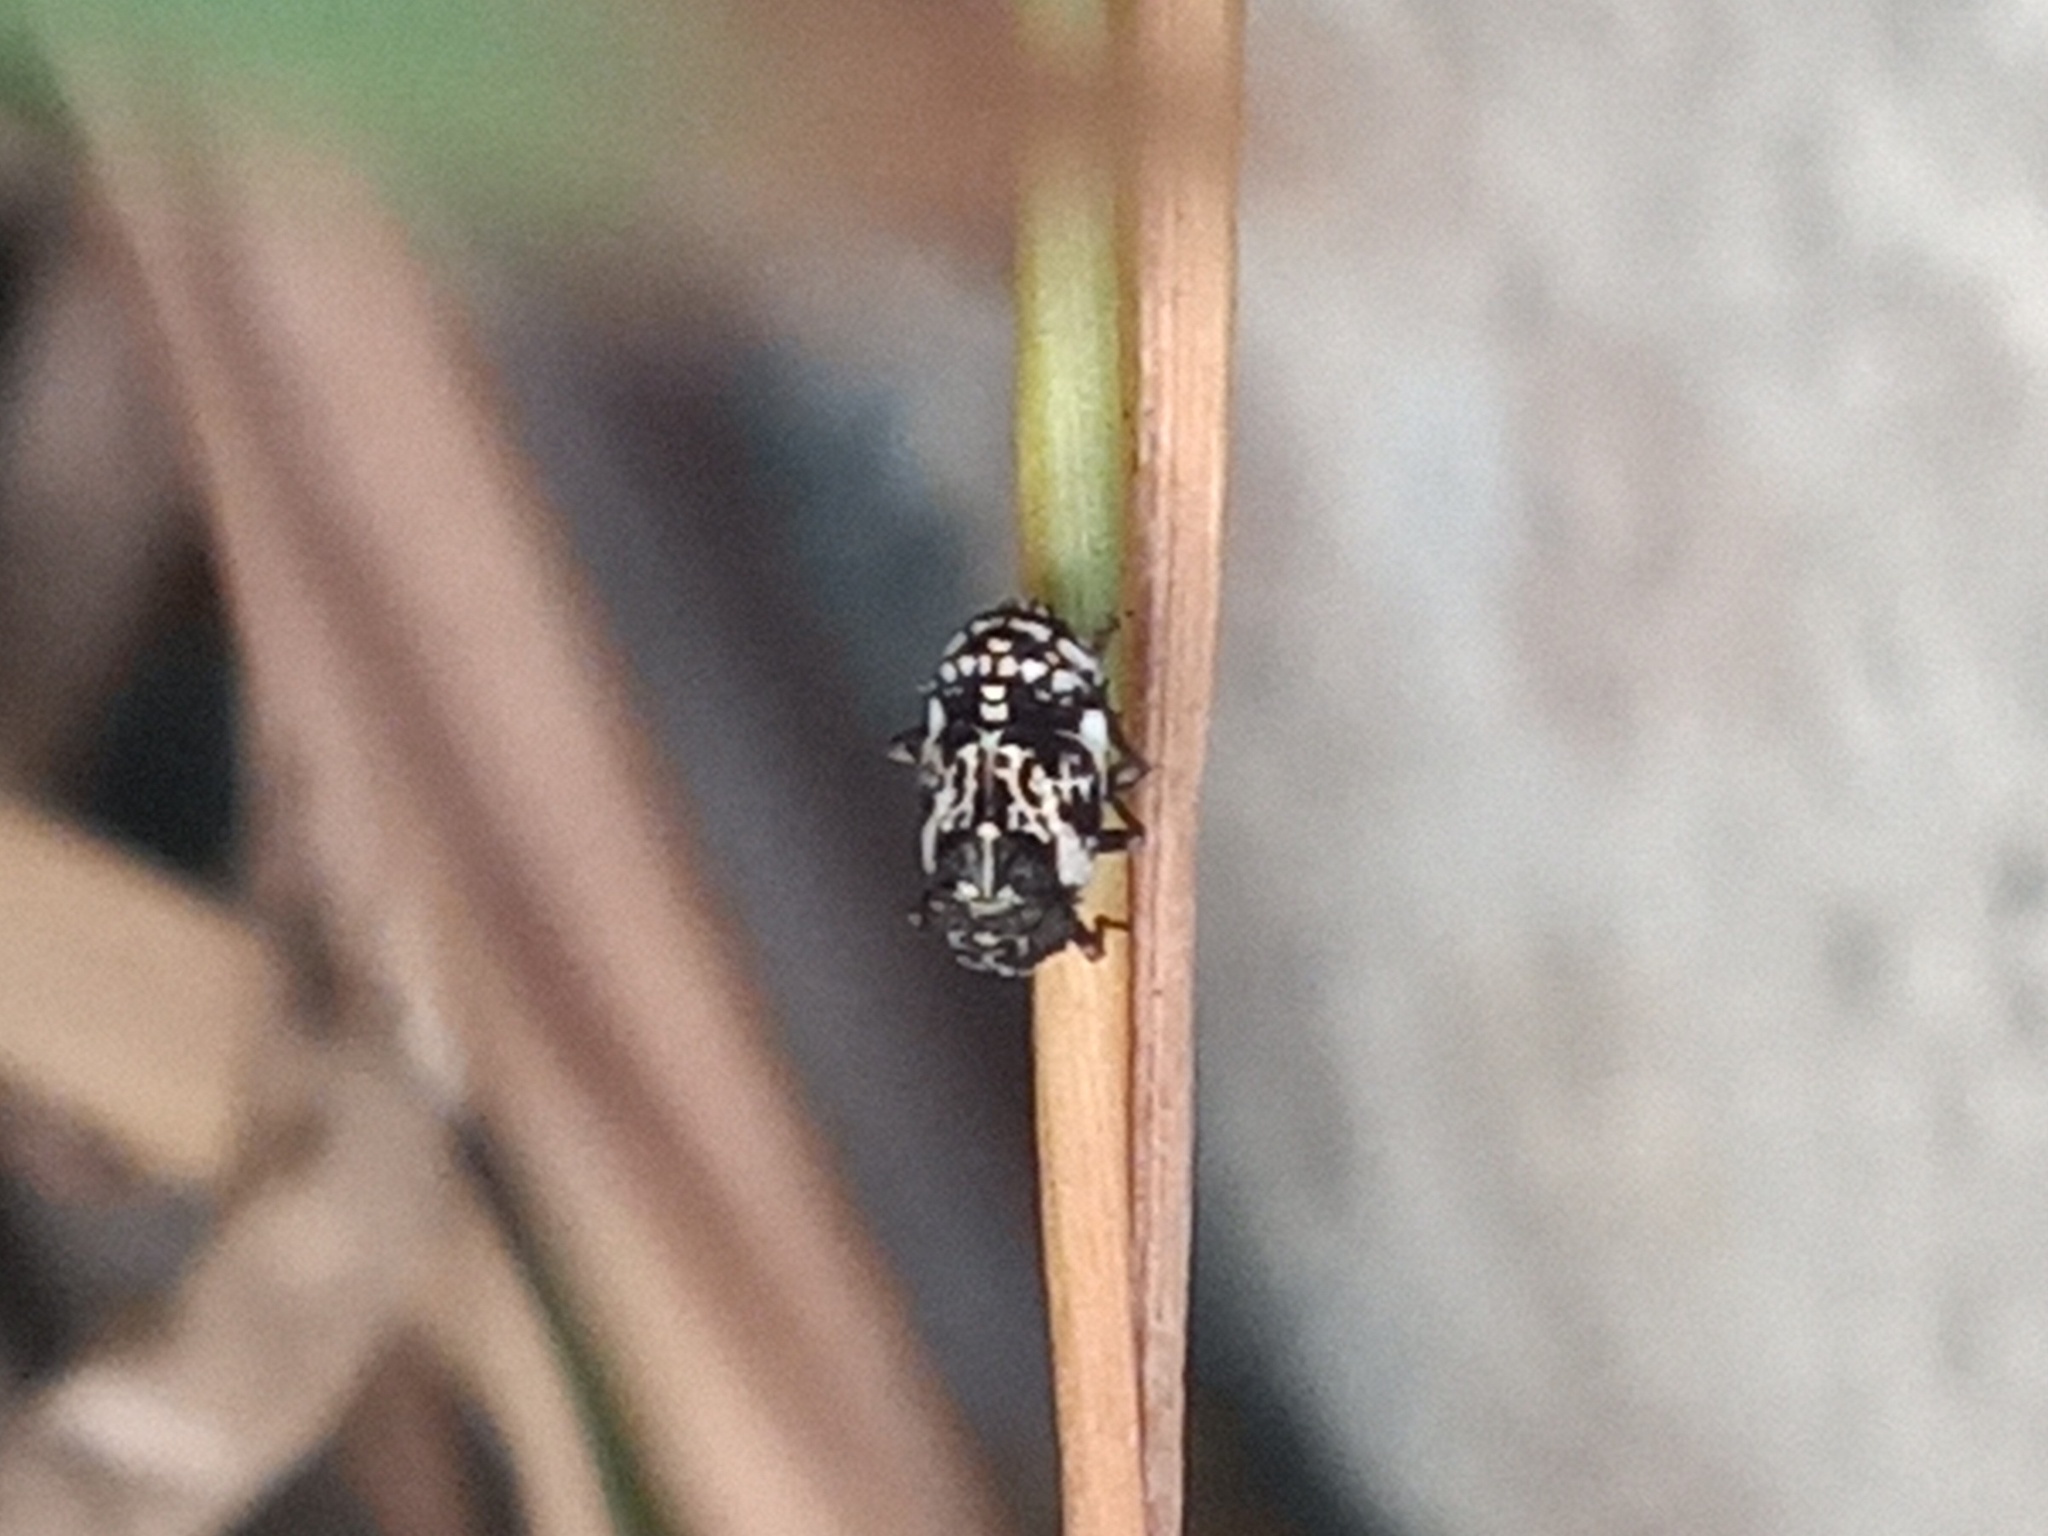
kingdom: Animalia
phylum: Arthropoda
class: Insecta
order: Hemiptera
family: Caliscelidae
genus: Bruchomorpha
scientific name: Bruchomorpha decorata
